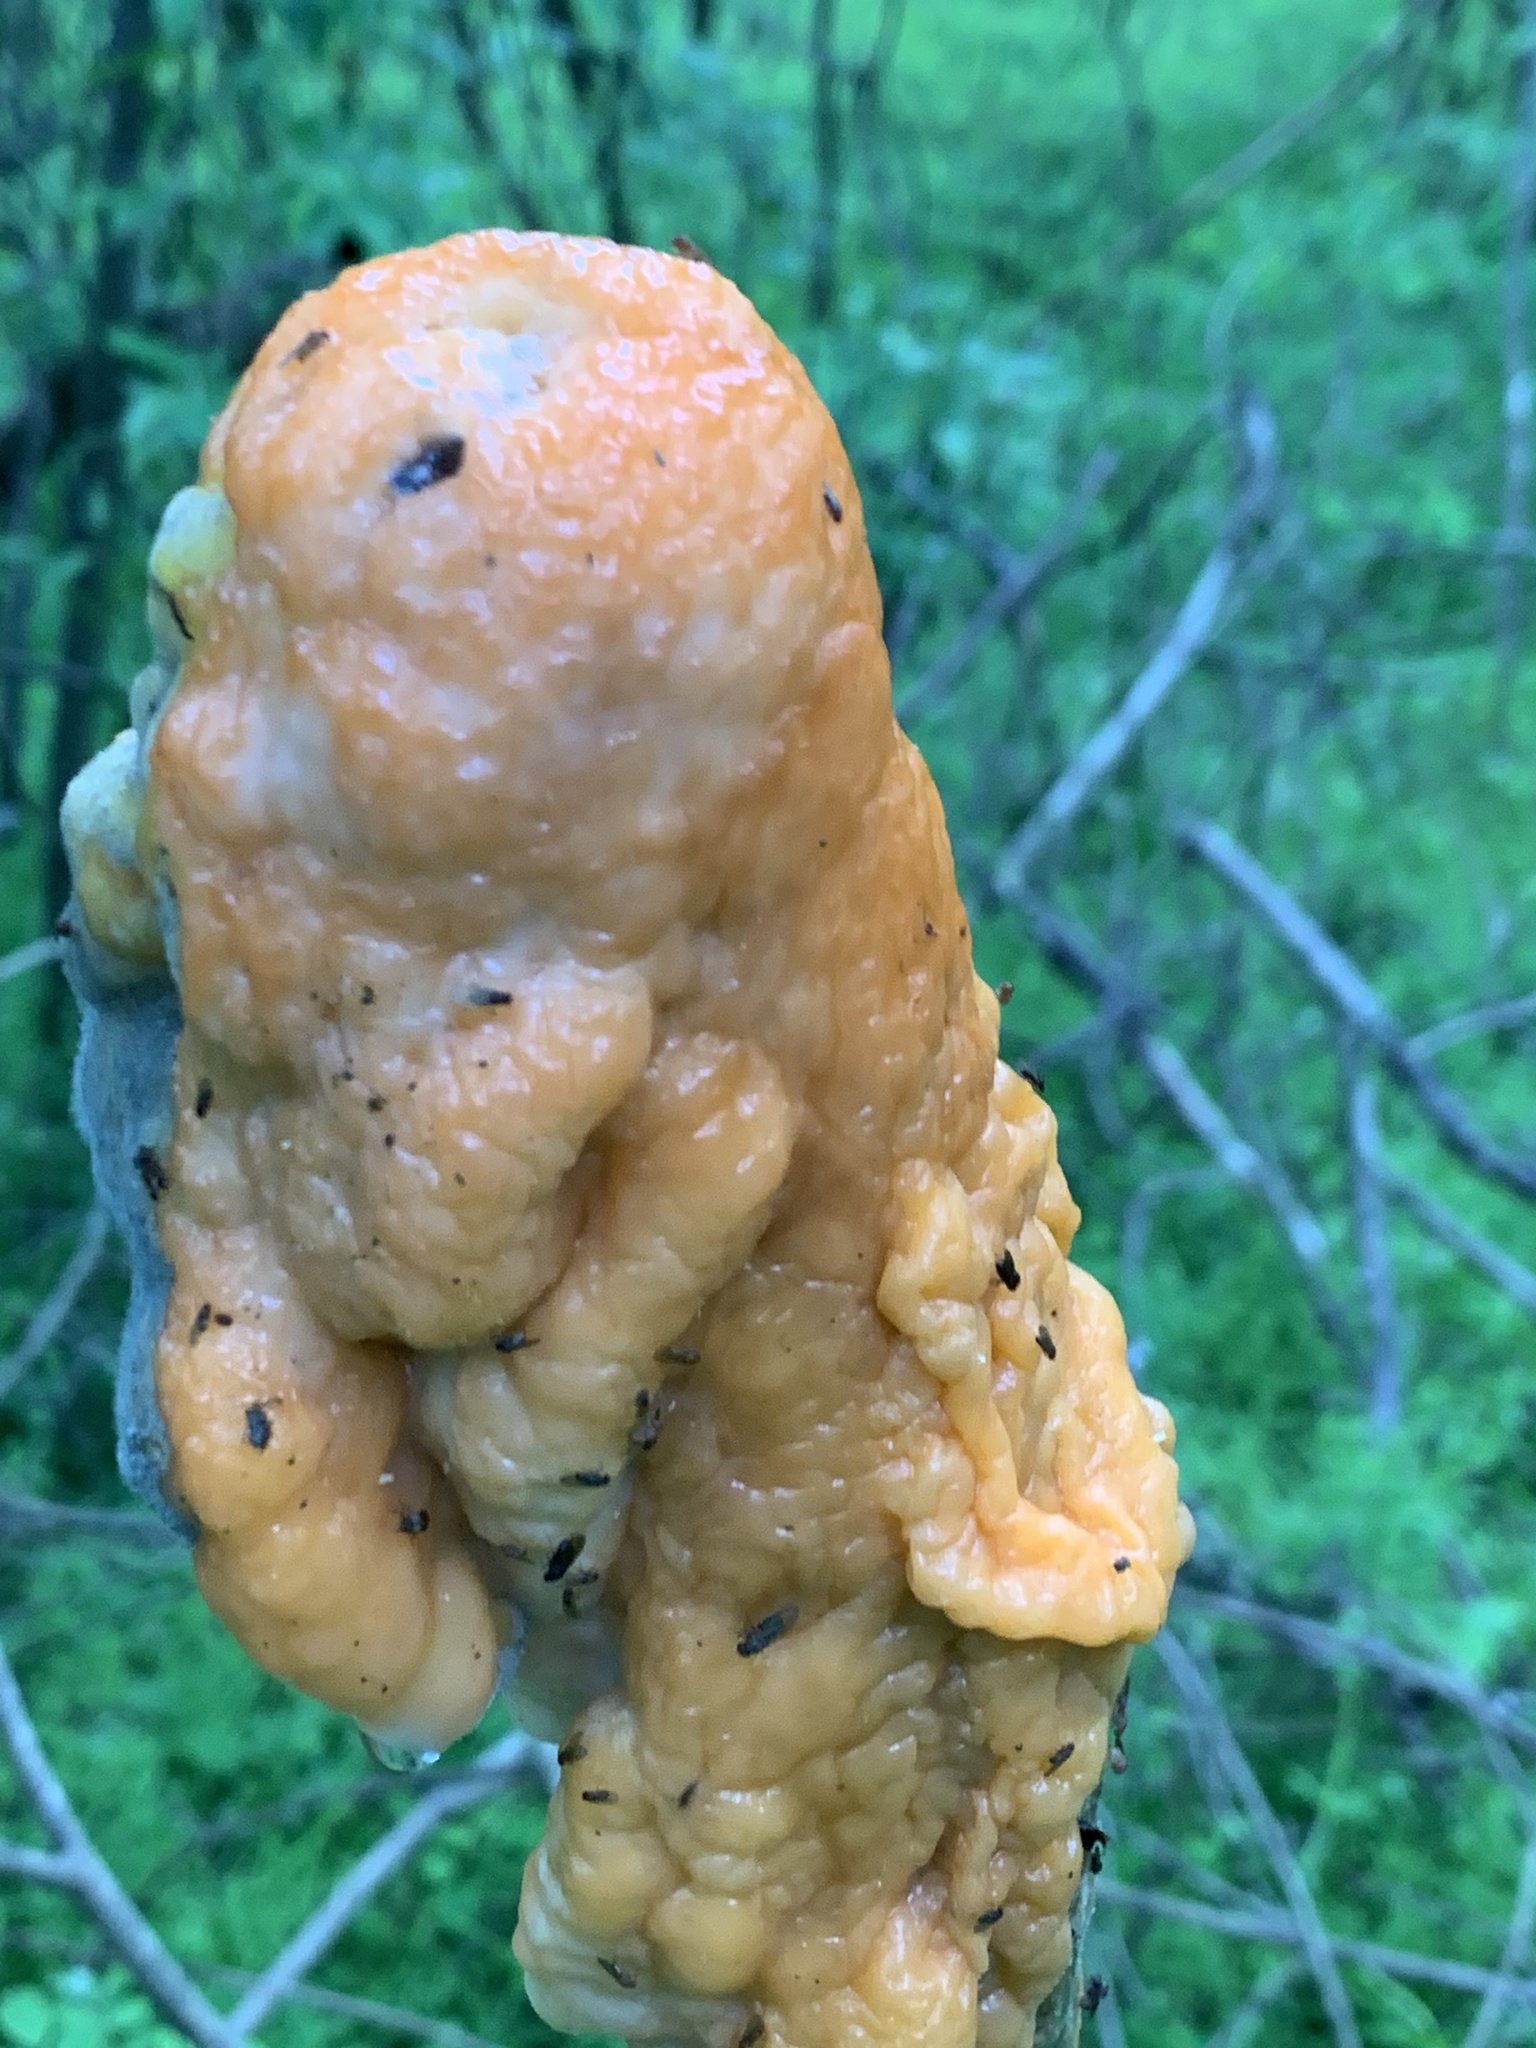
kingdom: Fungi
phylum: Ascomycota
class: Sordariomycetes
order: Hypocreales
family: Nectriaceae
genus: Fusicolla
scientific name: Fusicolla merismoides
